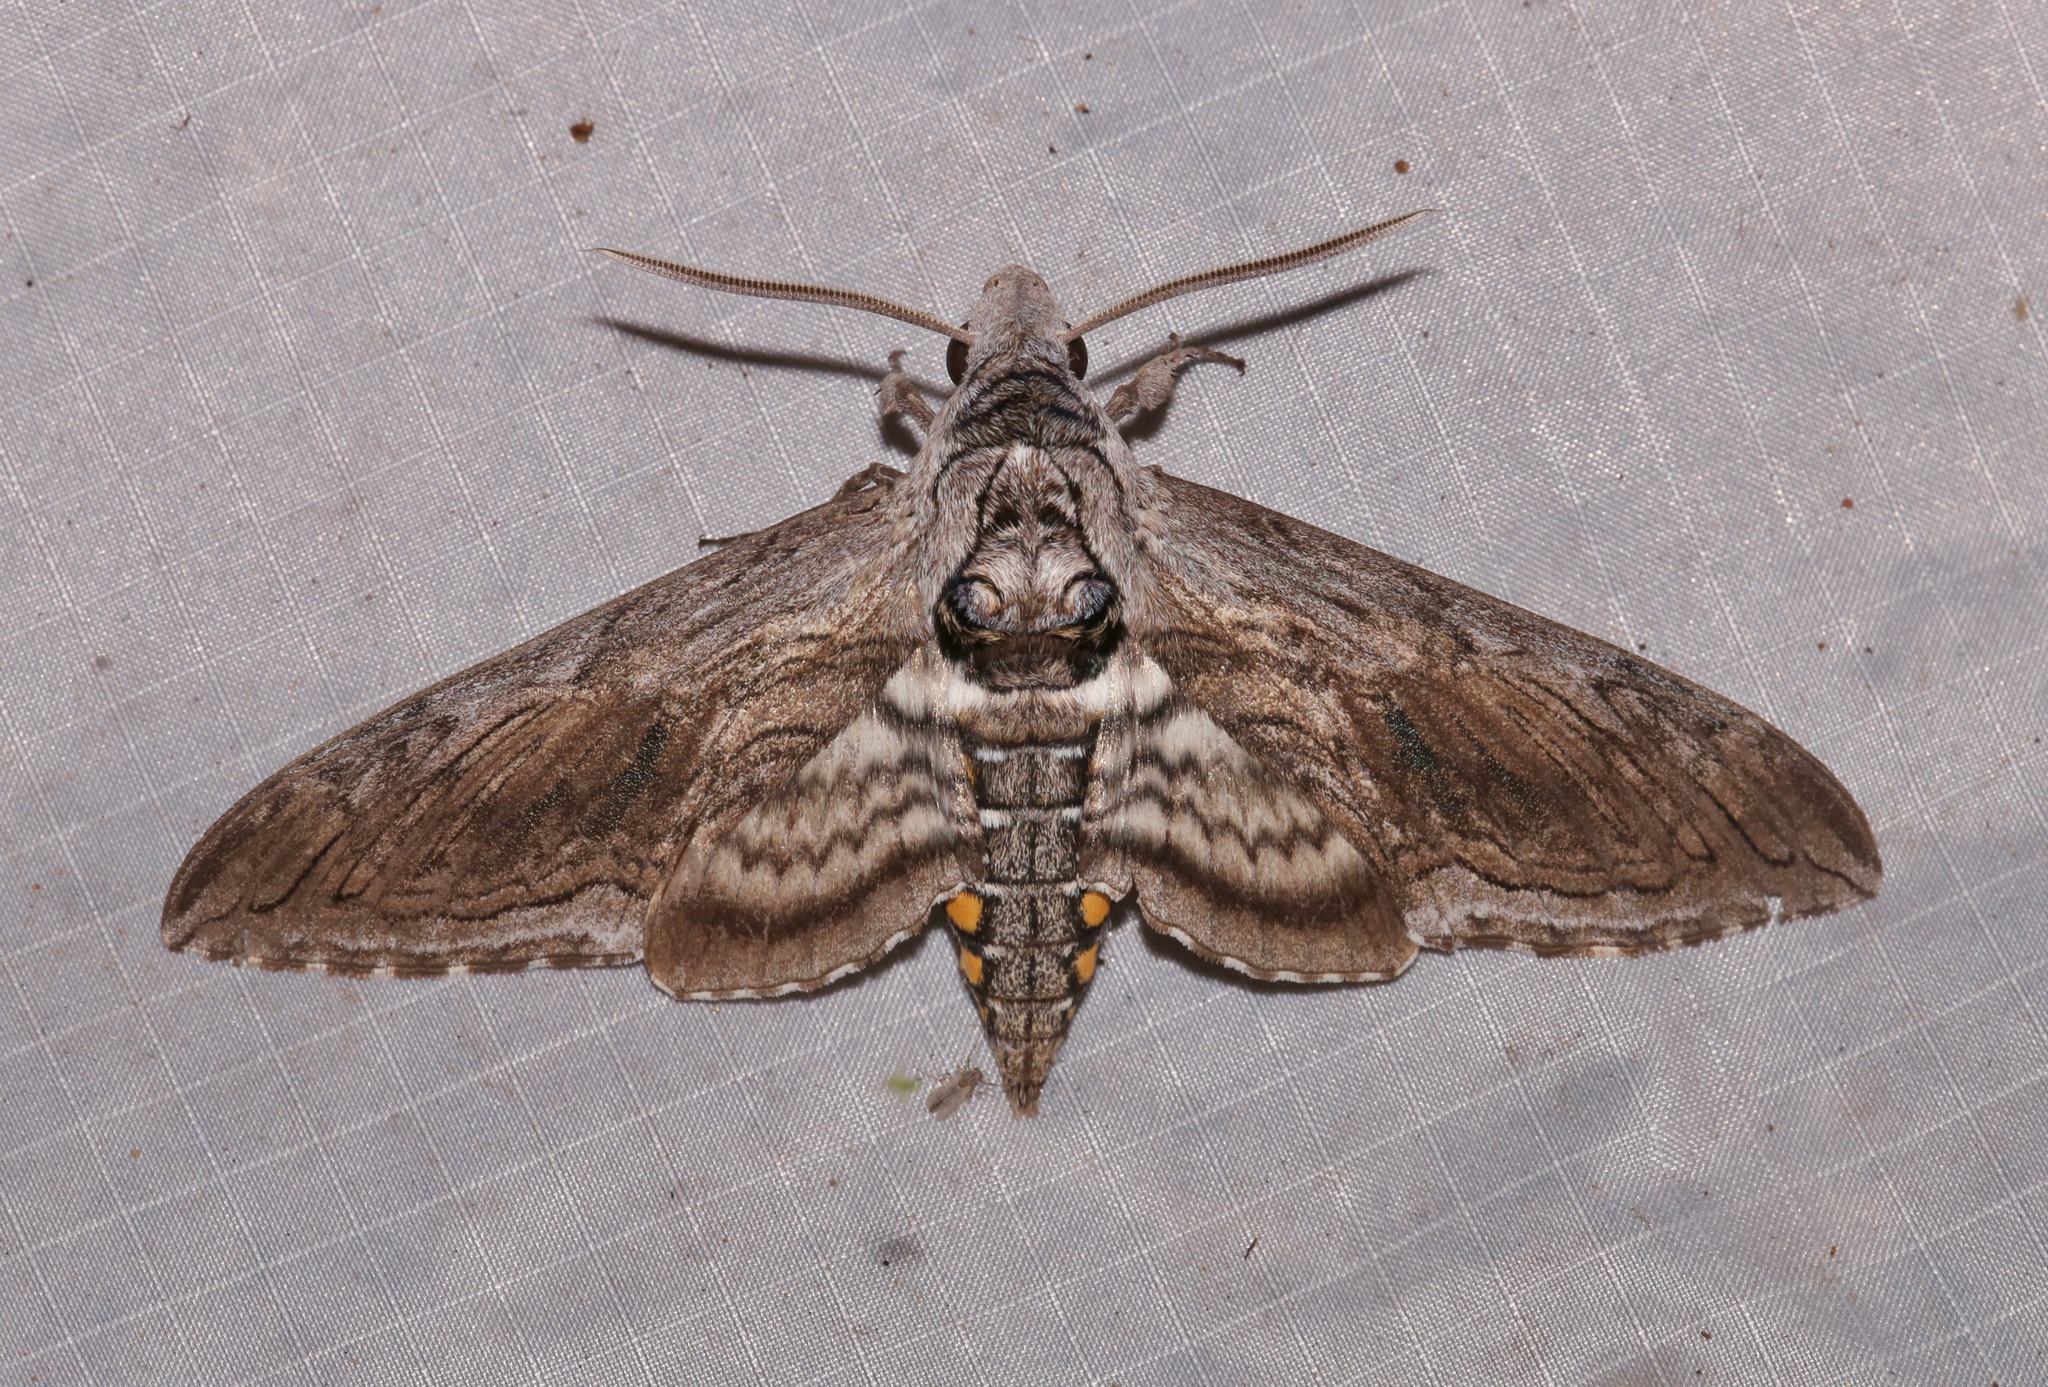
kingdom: Animalia
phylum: Arthropoda
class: Insecta
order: Lepidoptera
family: Sphingidae
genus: Manduca
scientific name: Manduca quinquemaculatus
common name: Five-spotted hawk-moth
